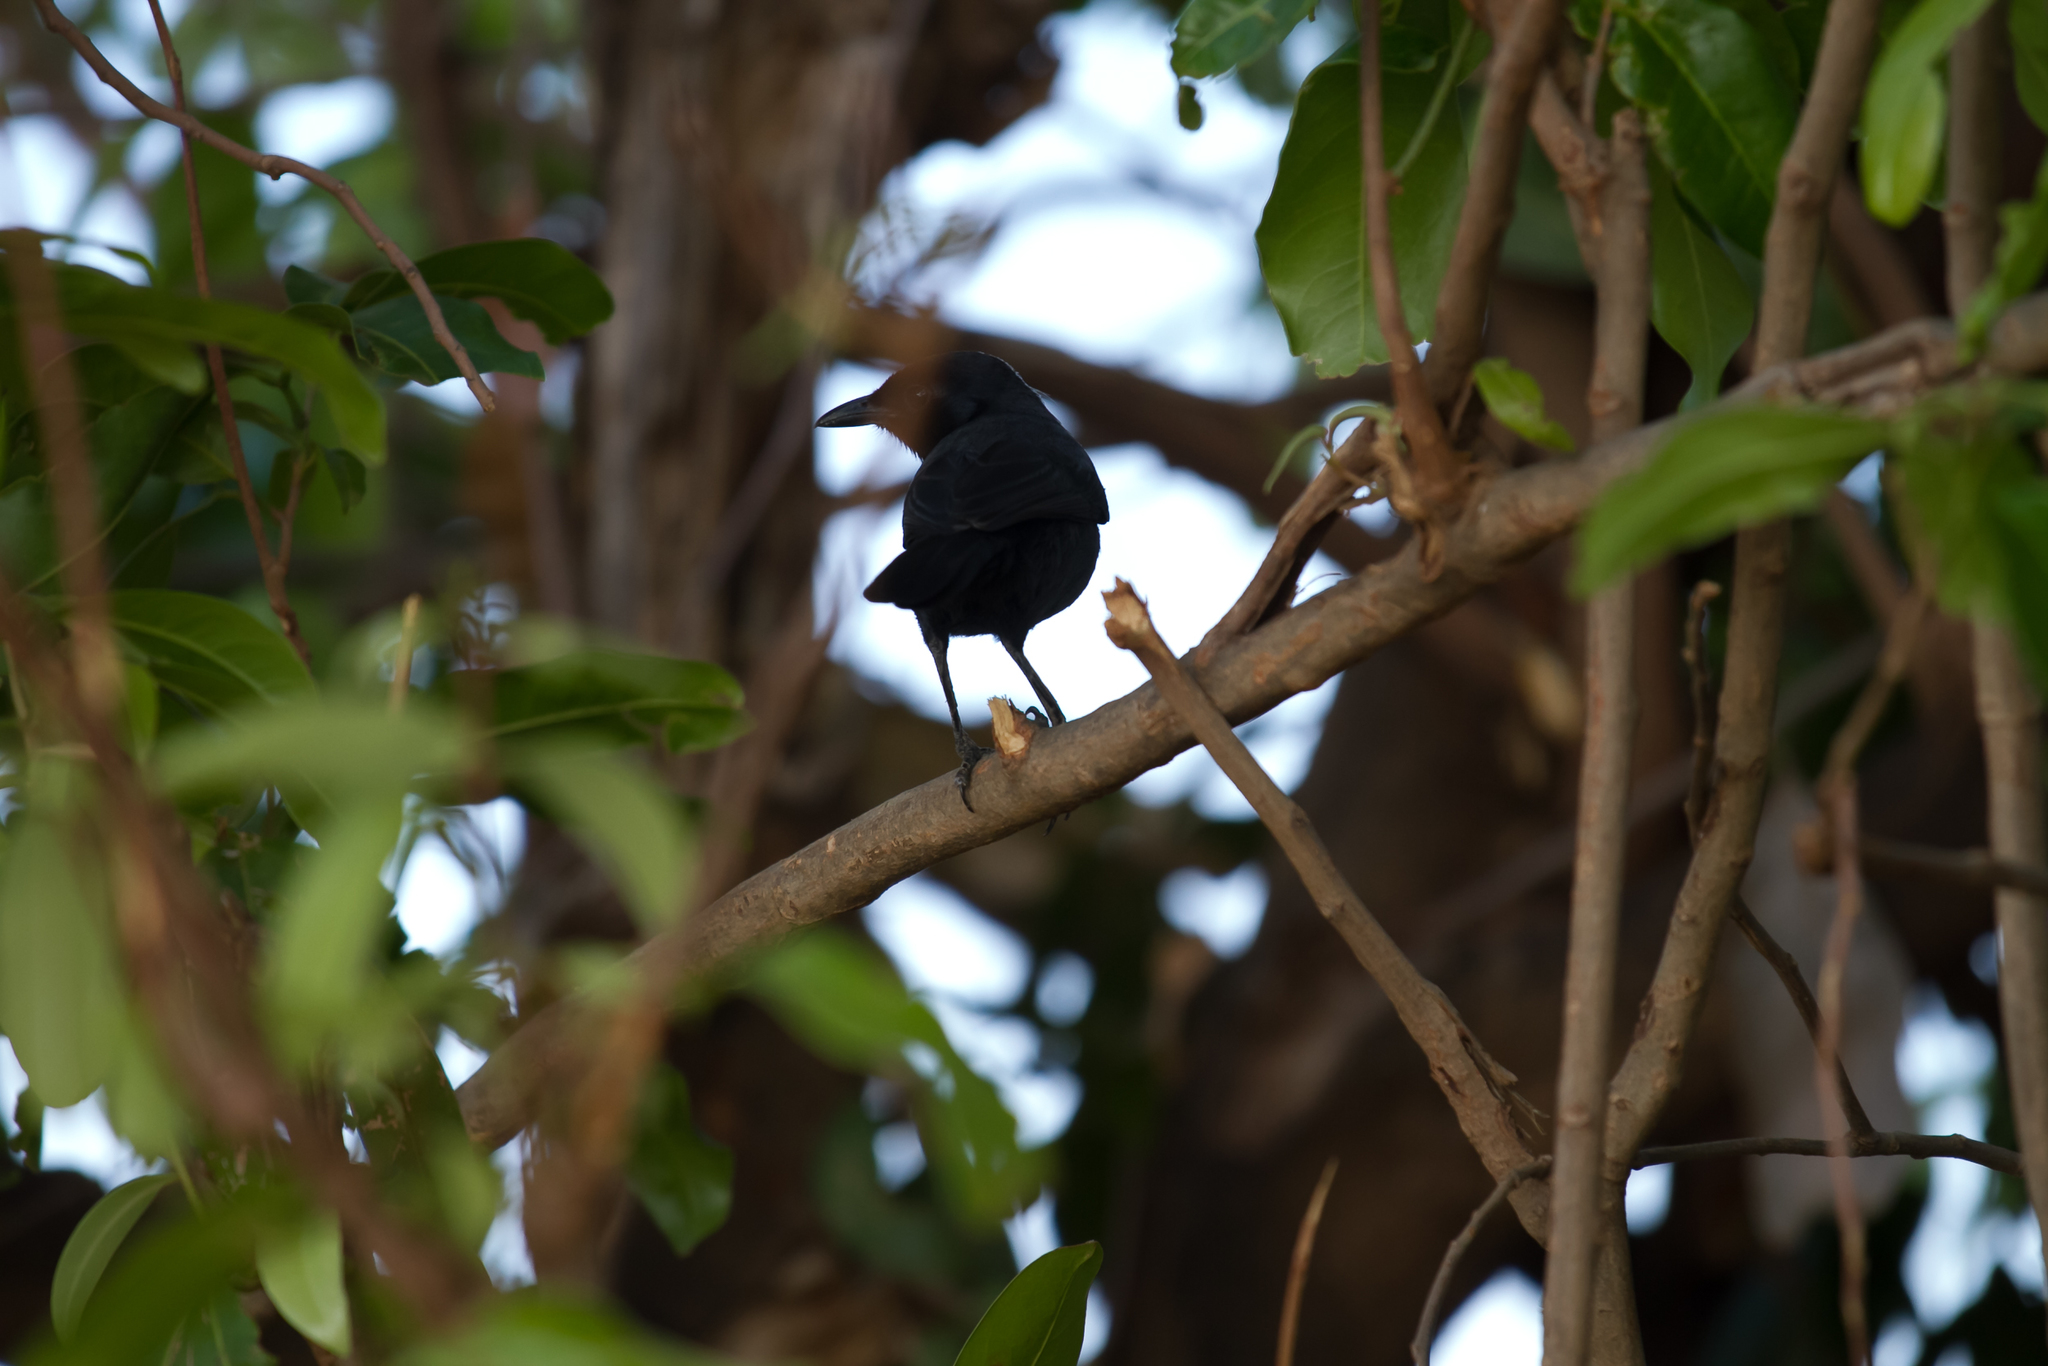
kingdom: Animalia
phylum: Chordata
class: Aves
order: Passeriformes
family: Malaconotidae
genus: Laniarius
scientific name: Laniarius funebris
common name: Slate-colored boubou
